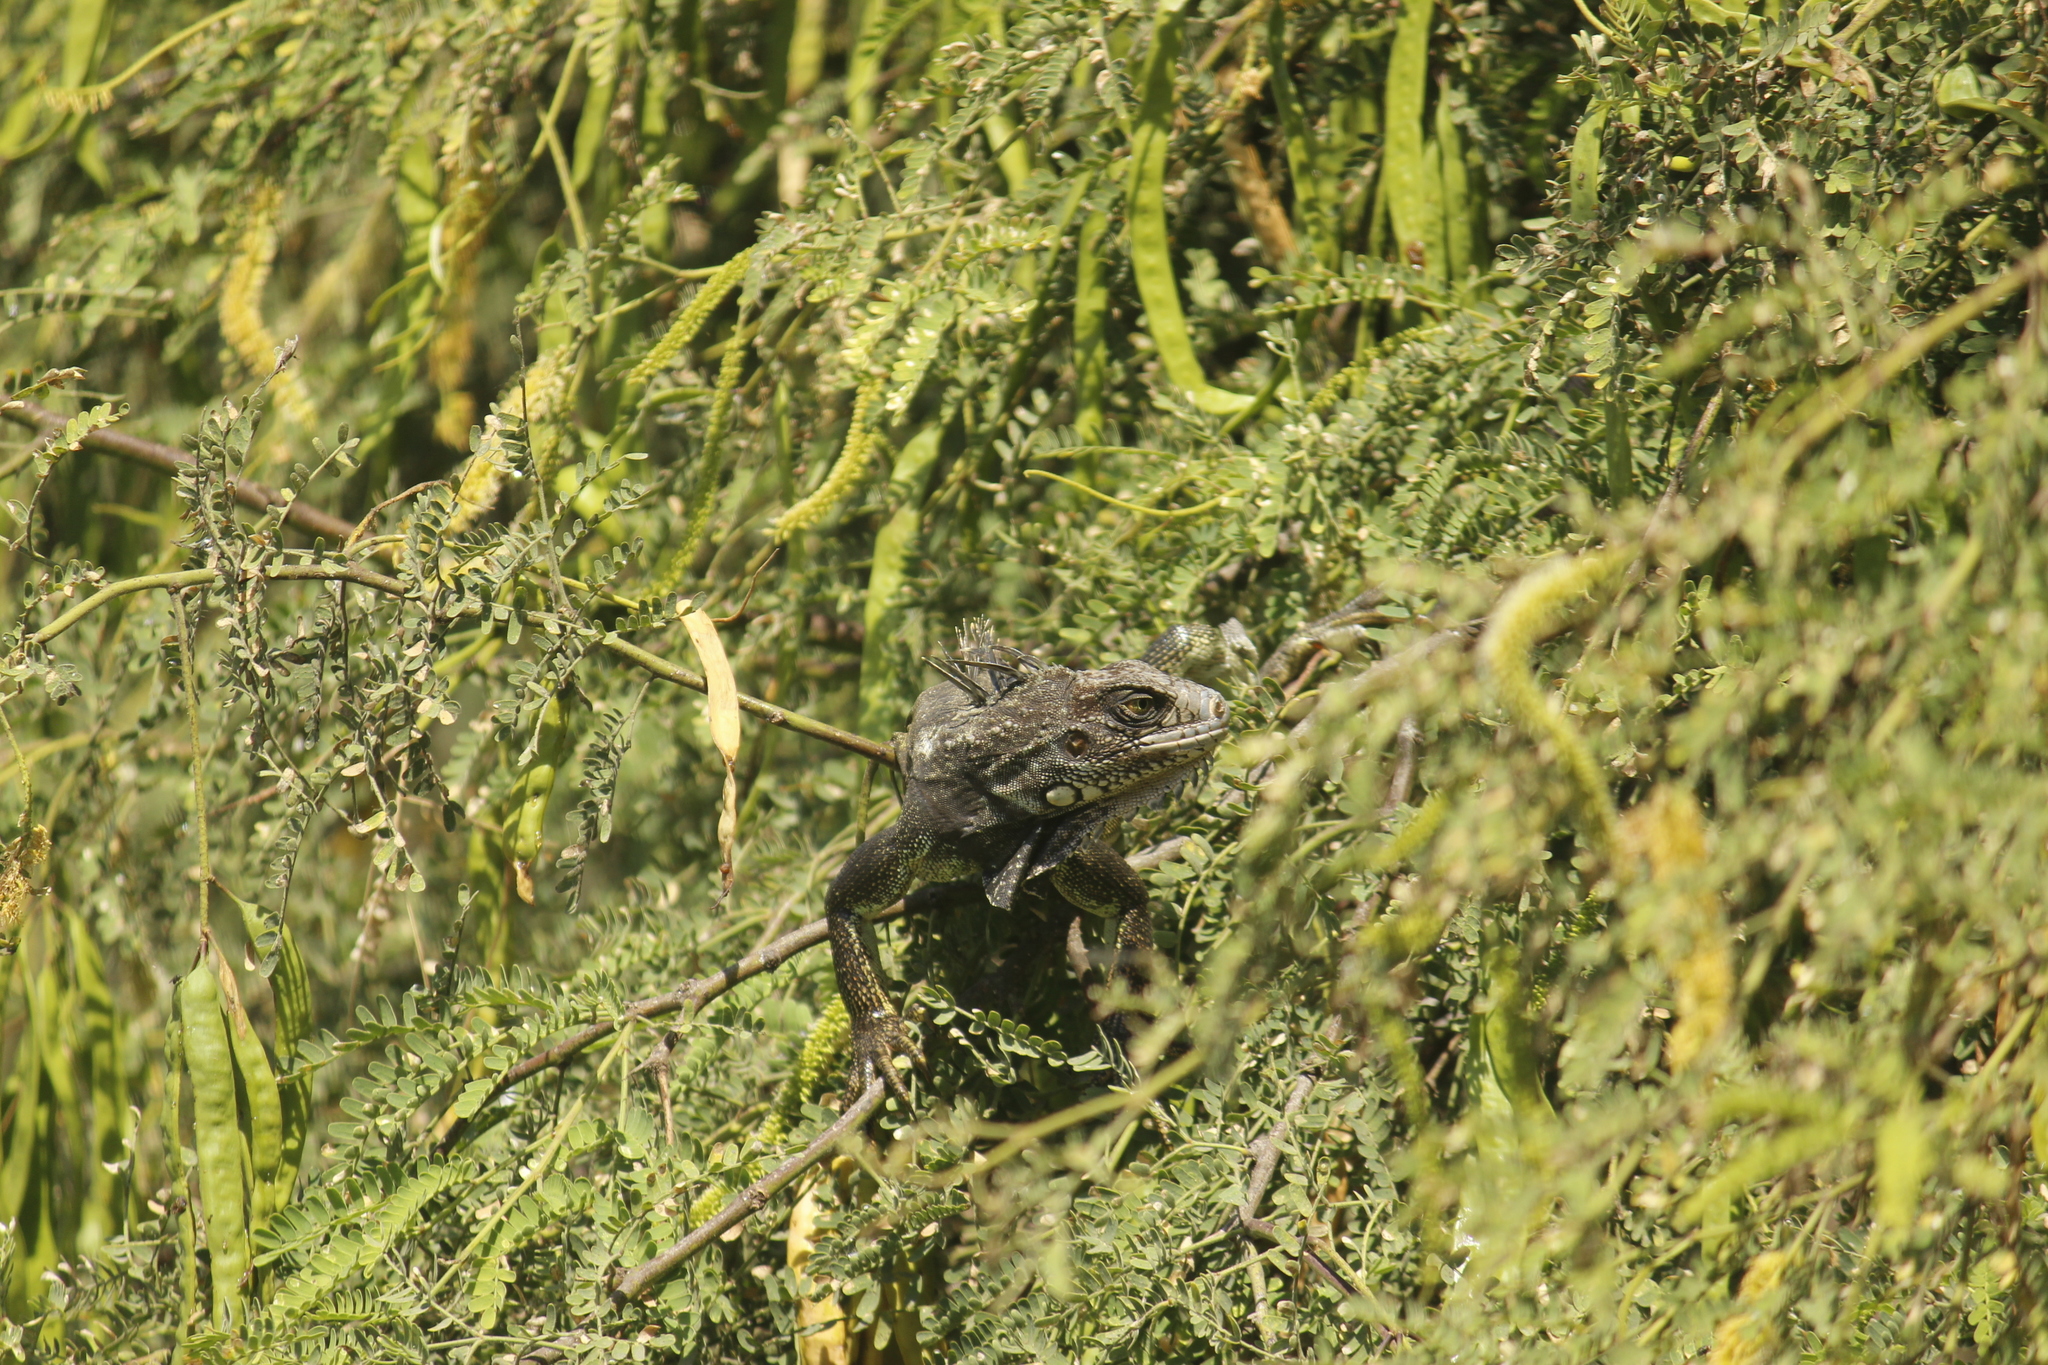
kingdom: Animalia
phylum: Chordata
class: Squamata
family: Iguanidae
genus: Iguana
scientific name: Iguana iguana
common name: Green iguana
